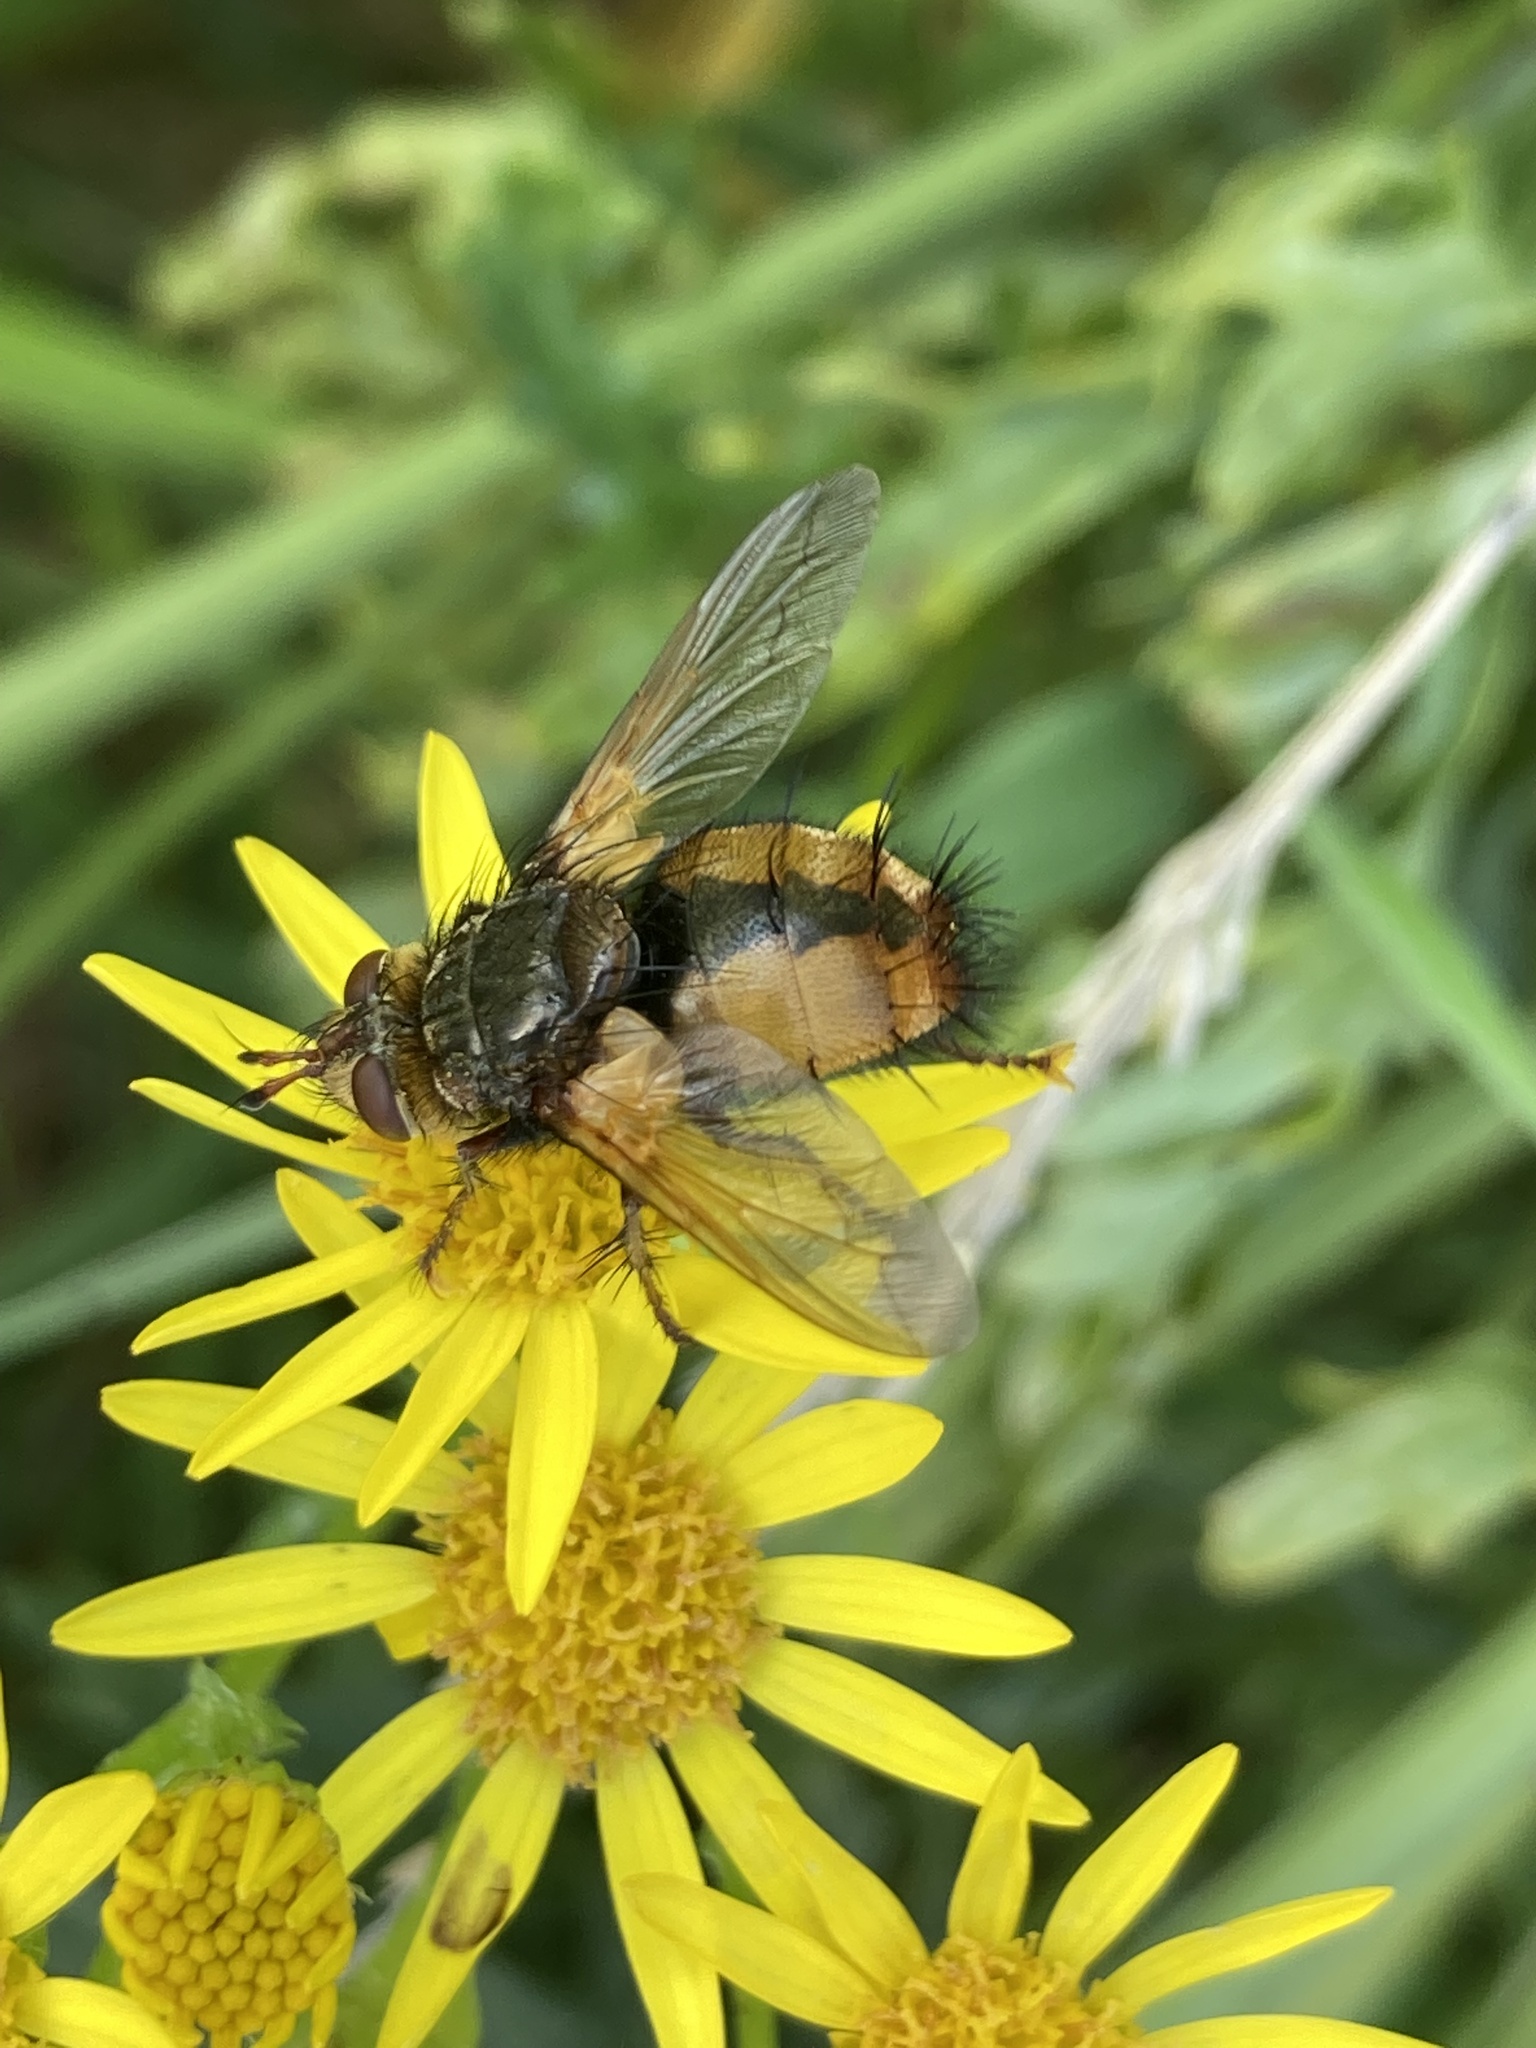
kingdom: Animalia
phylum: Arthropoda
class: Insecta
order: Diptera
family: Tachinidae
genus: Tachina
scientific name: Tachina fera
